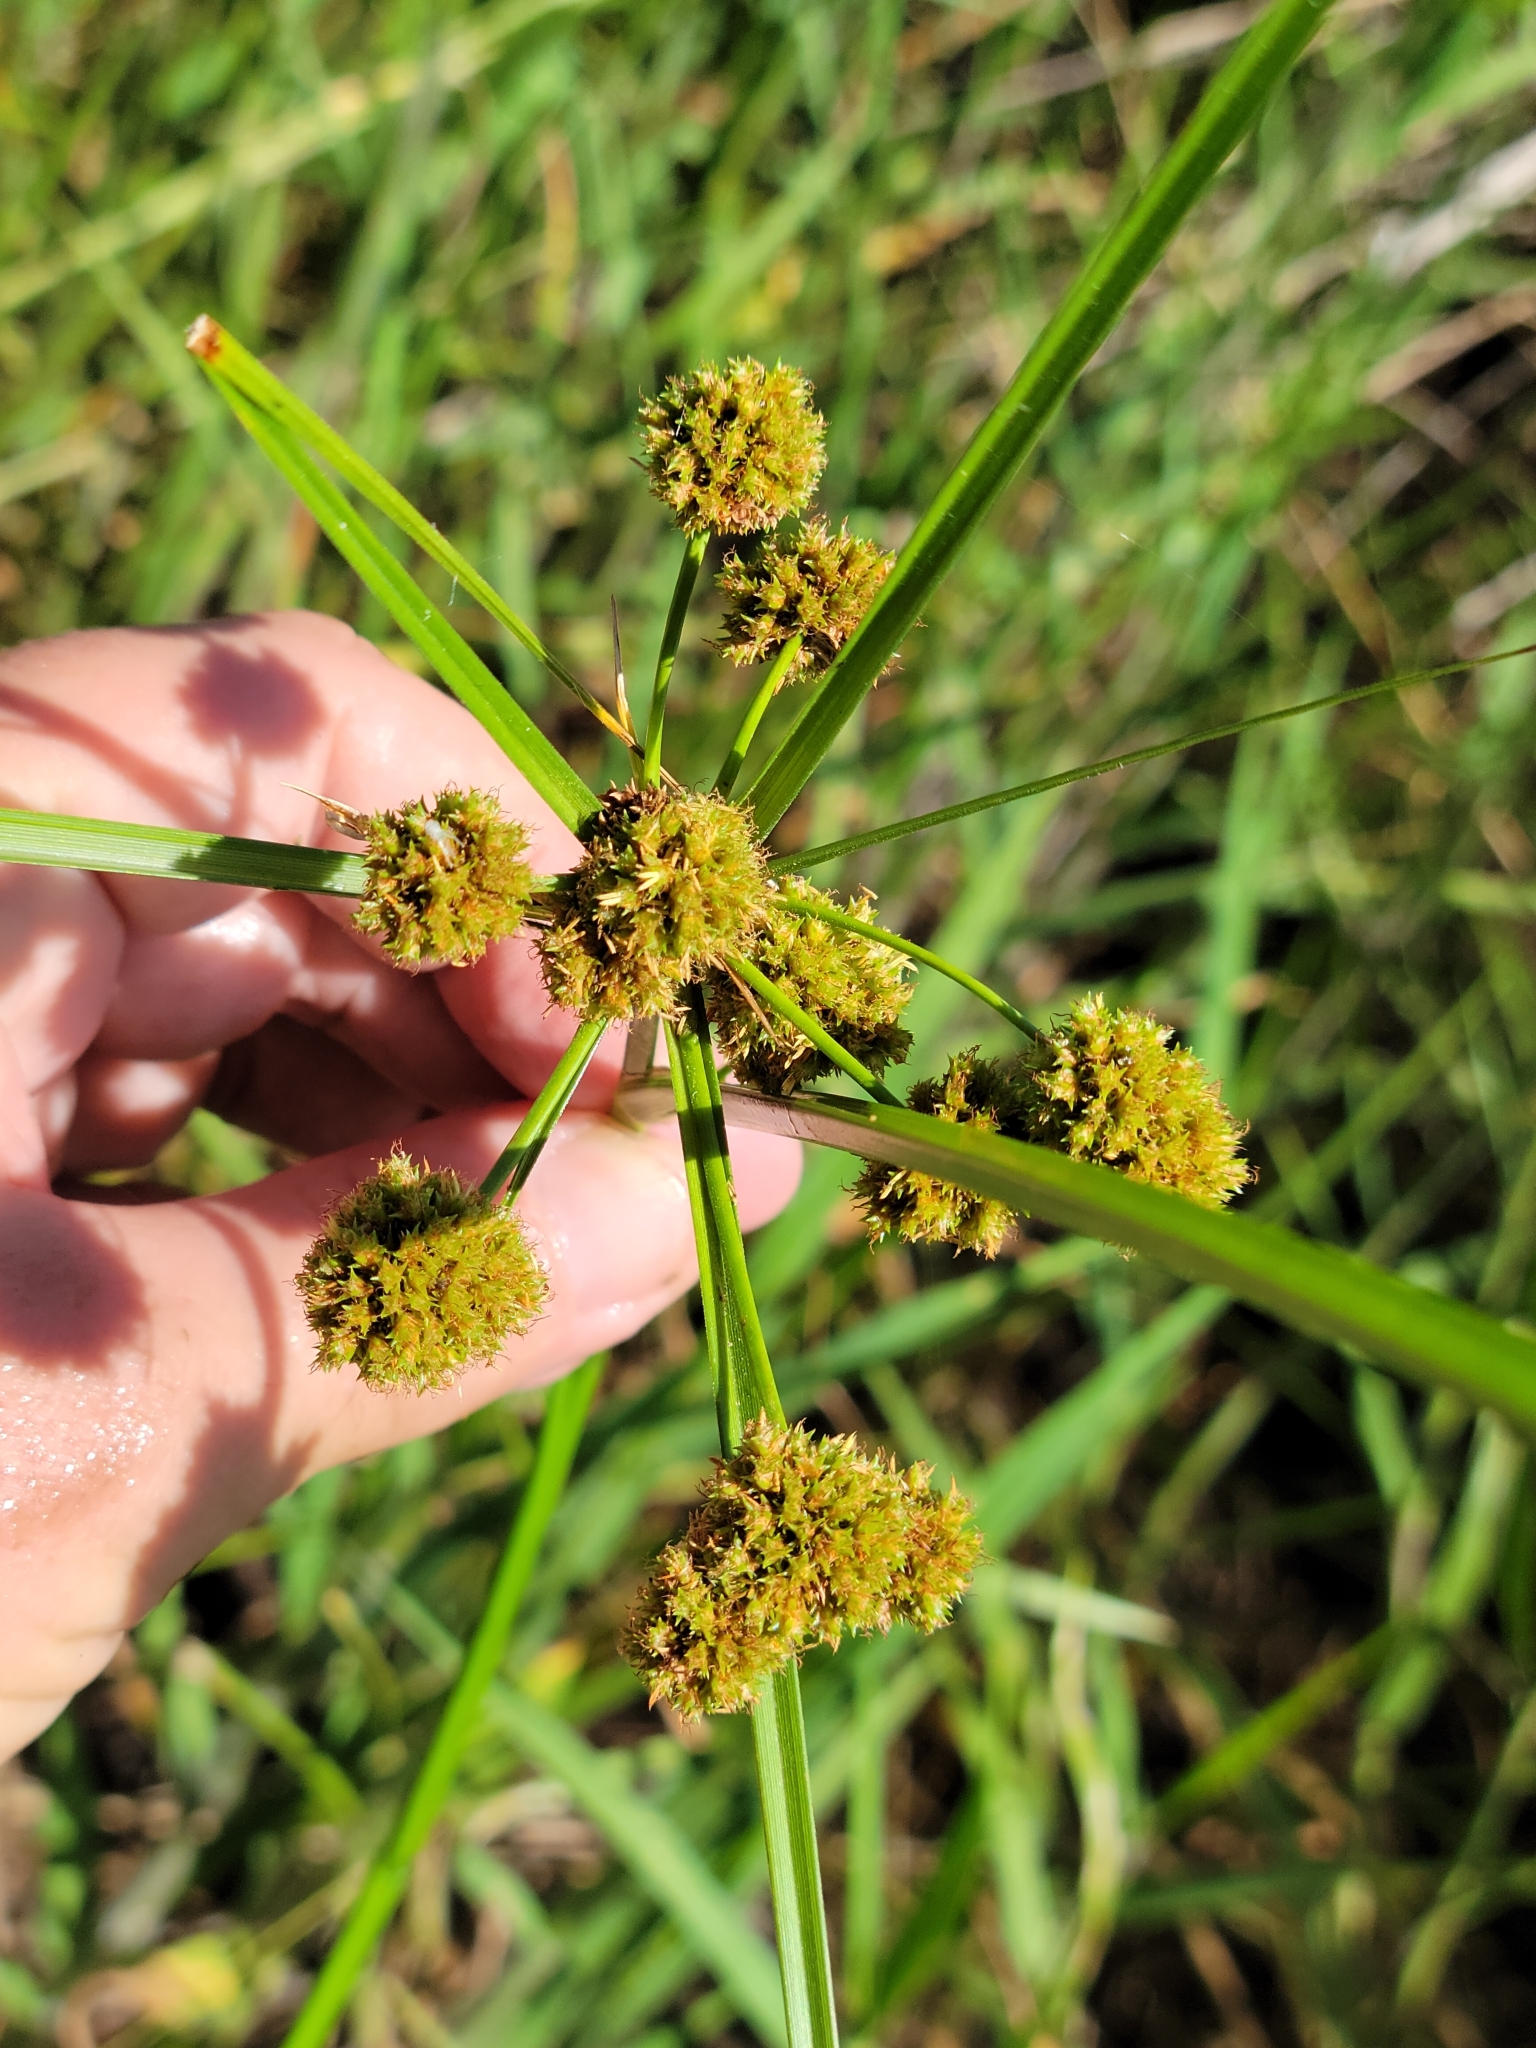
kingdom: Plantae
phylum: Tracheophyta
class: Liliopsida
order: Poales
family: Cyperaceae
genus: Cyperus
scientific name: Cyperus blepharoleptos
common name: Cuban bulrush
